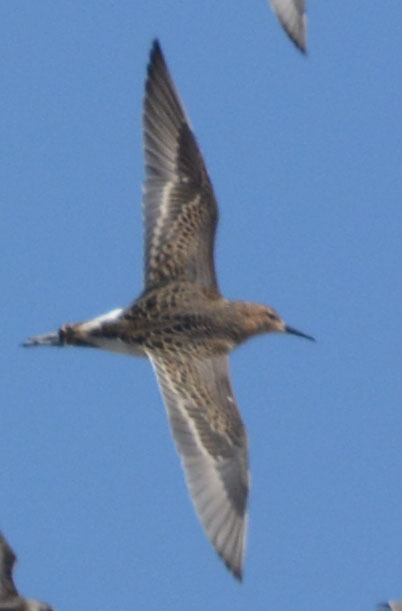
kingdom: Animalia
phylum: Chordata
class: Aves
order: Charadriiformes
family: Scolopacidae
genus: Calidris
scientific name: Calidris pugnax
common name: Ruff
